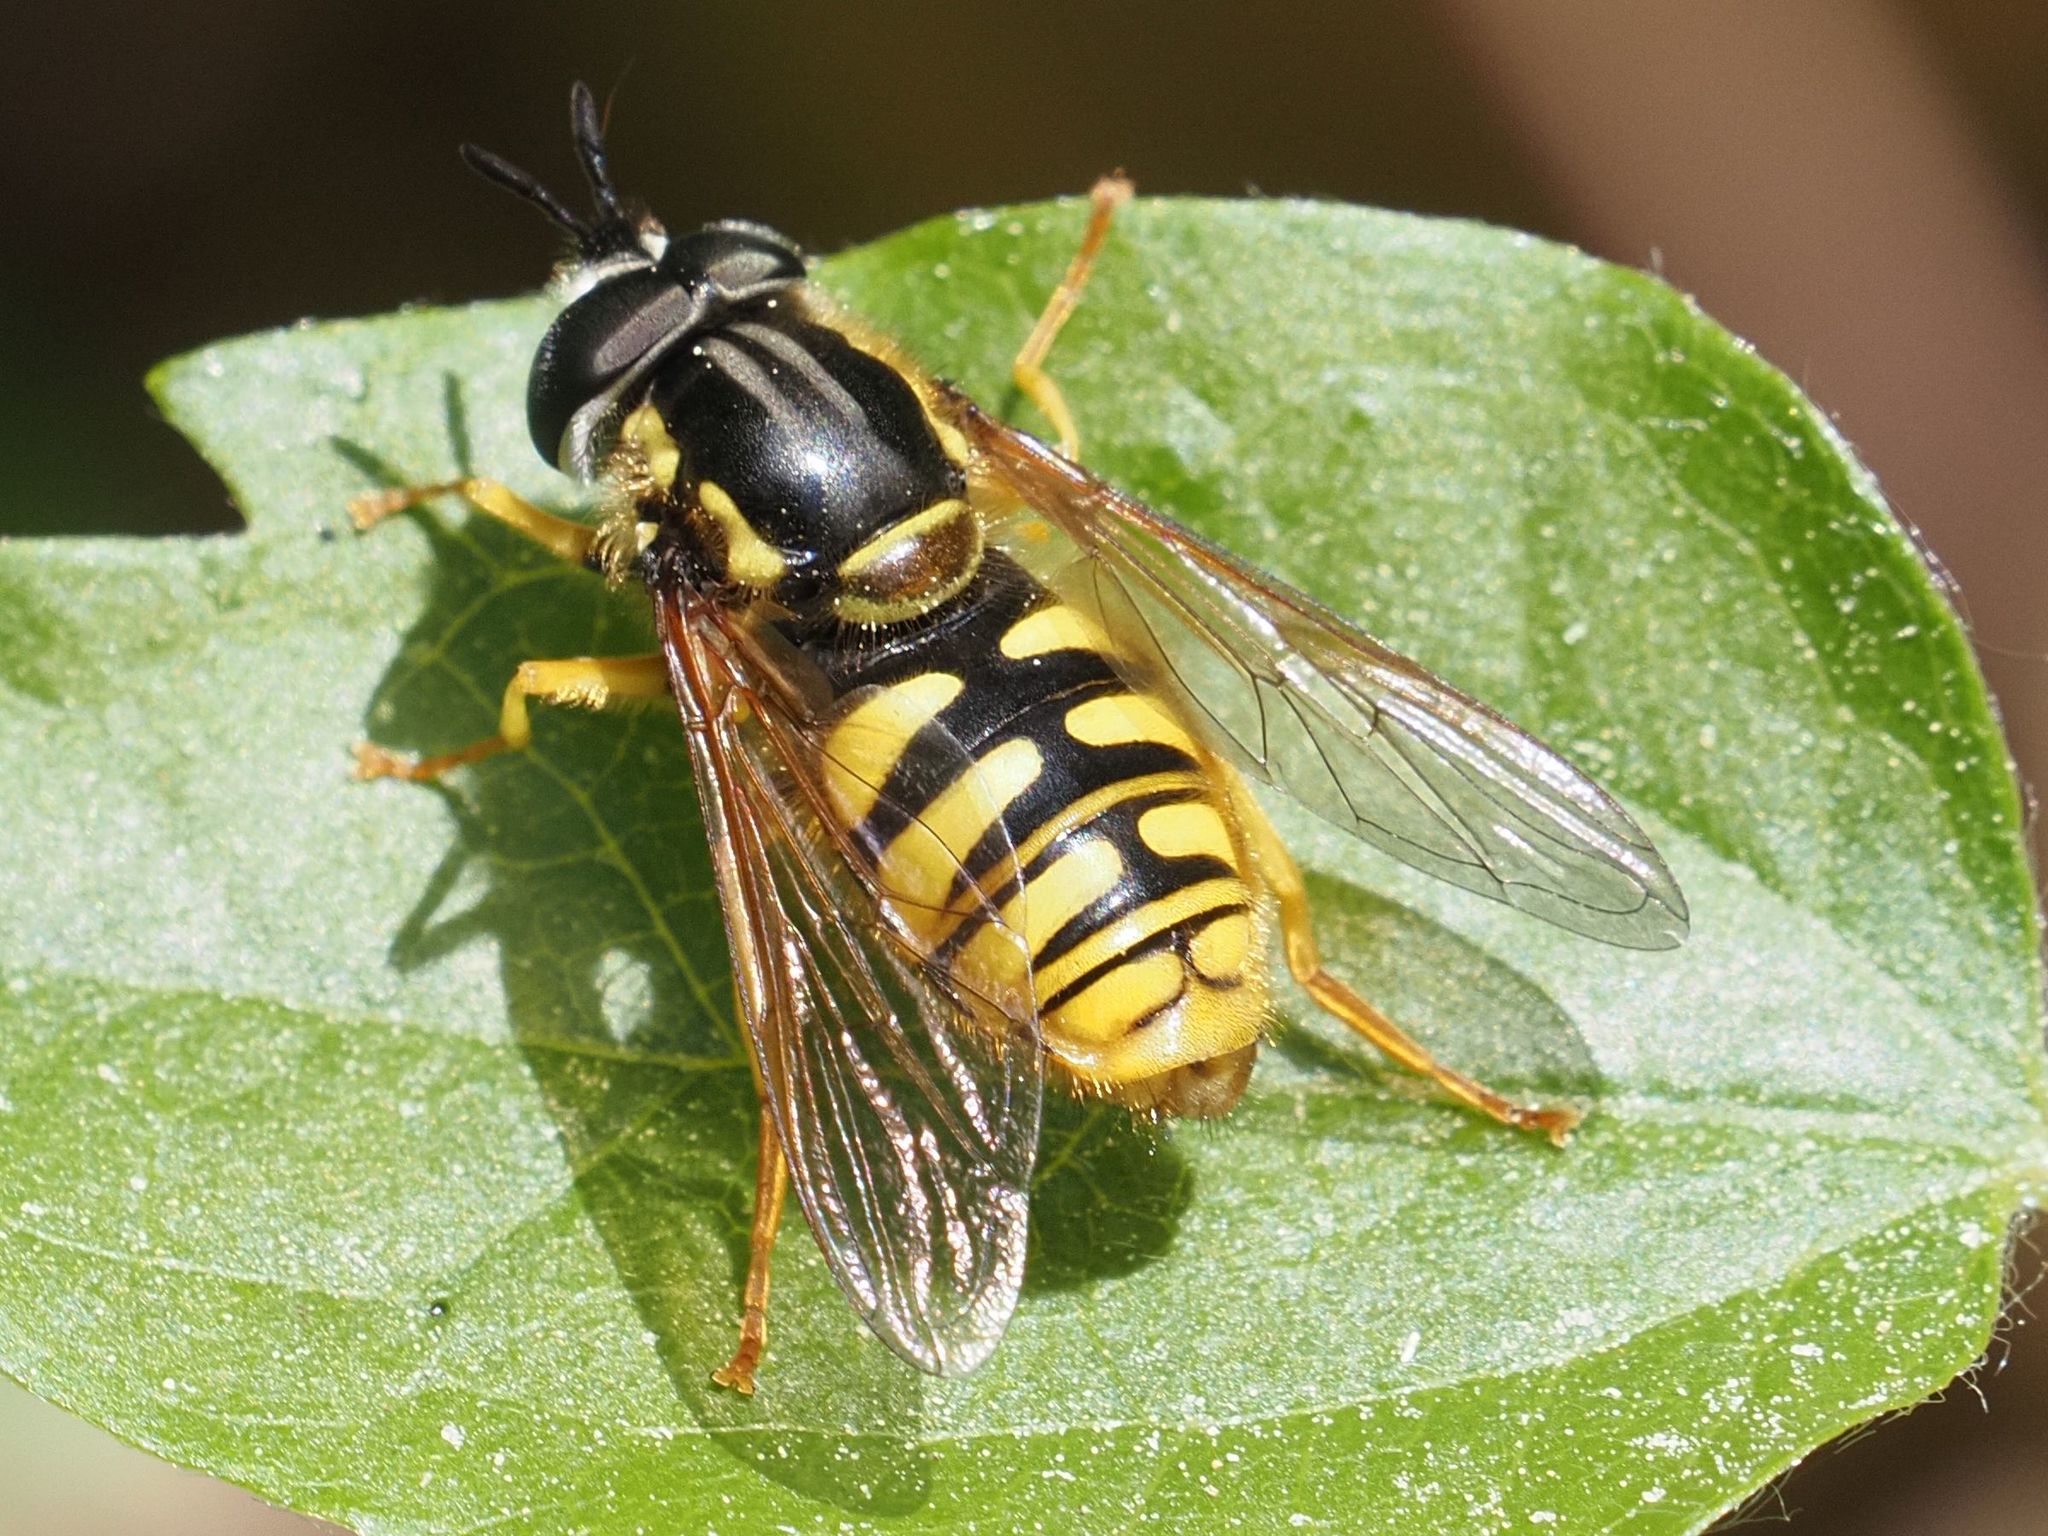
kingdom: Animalia
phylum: Arthropoda
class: Insecta
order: Diptera
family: Syrphidae
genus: Chrysotoxum
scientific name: Chrysotoxum cautum
